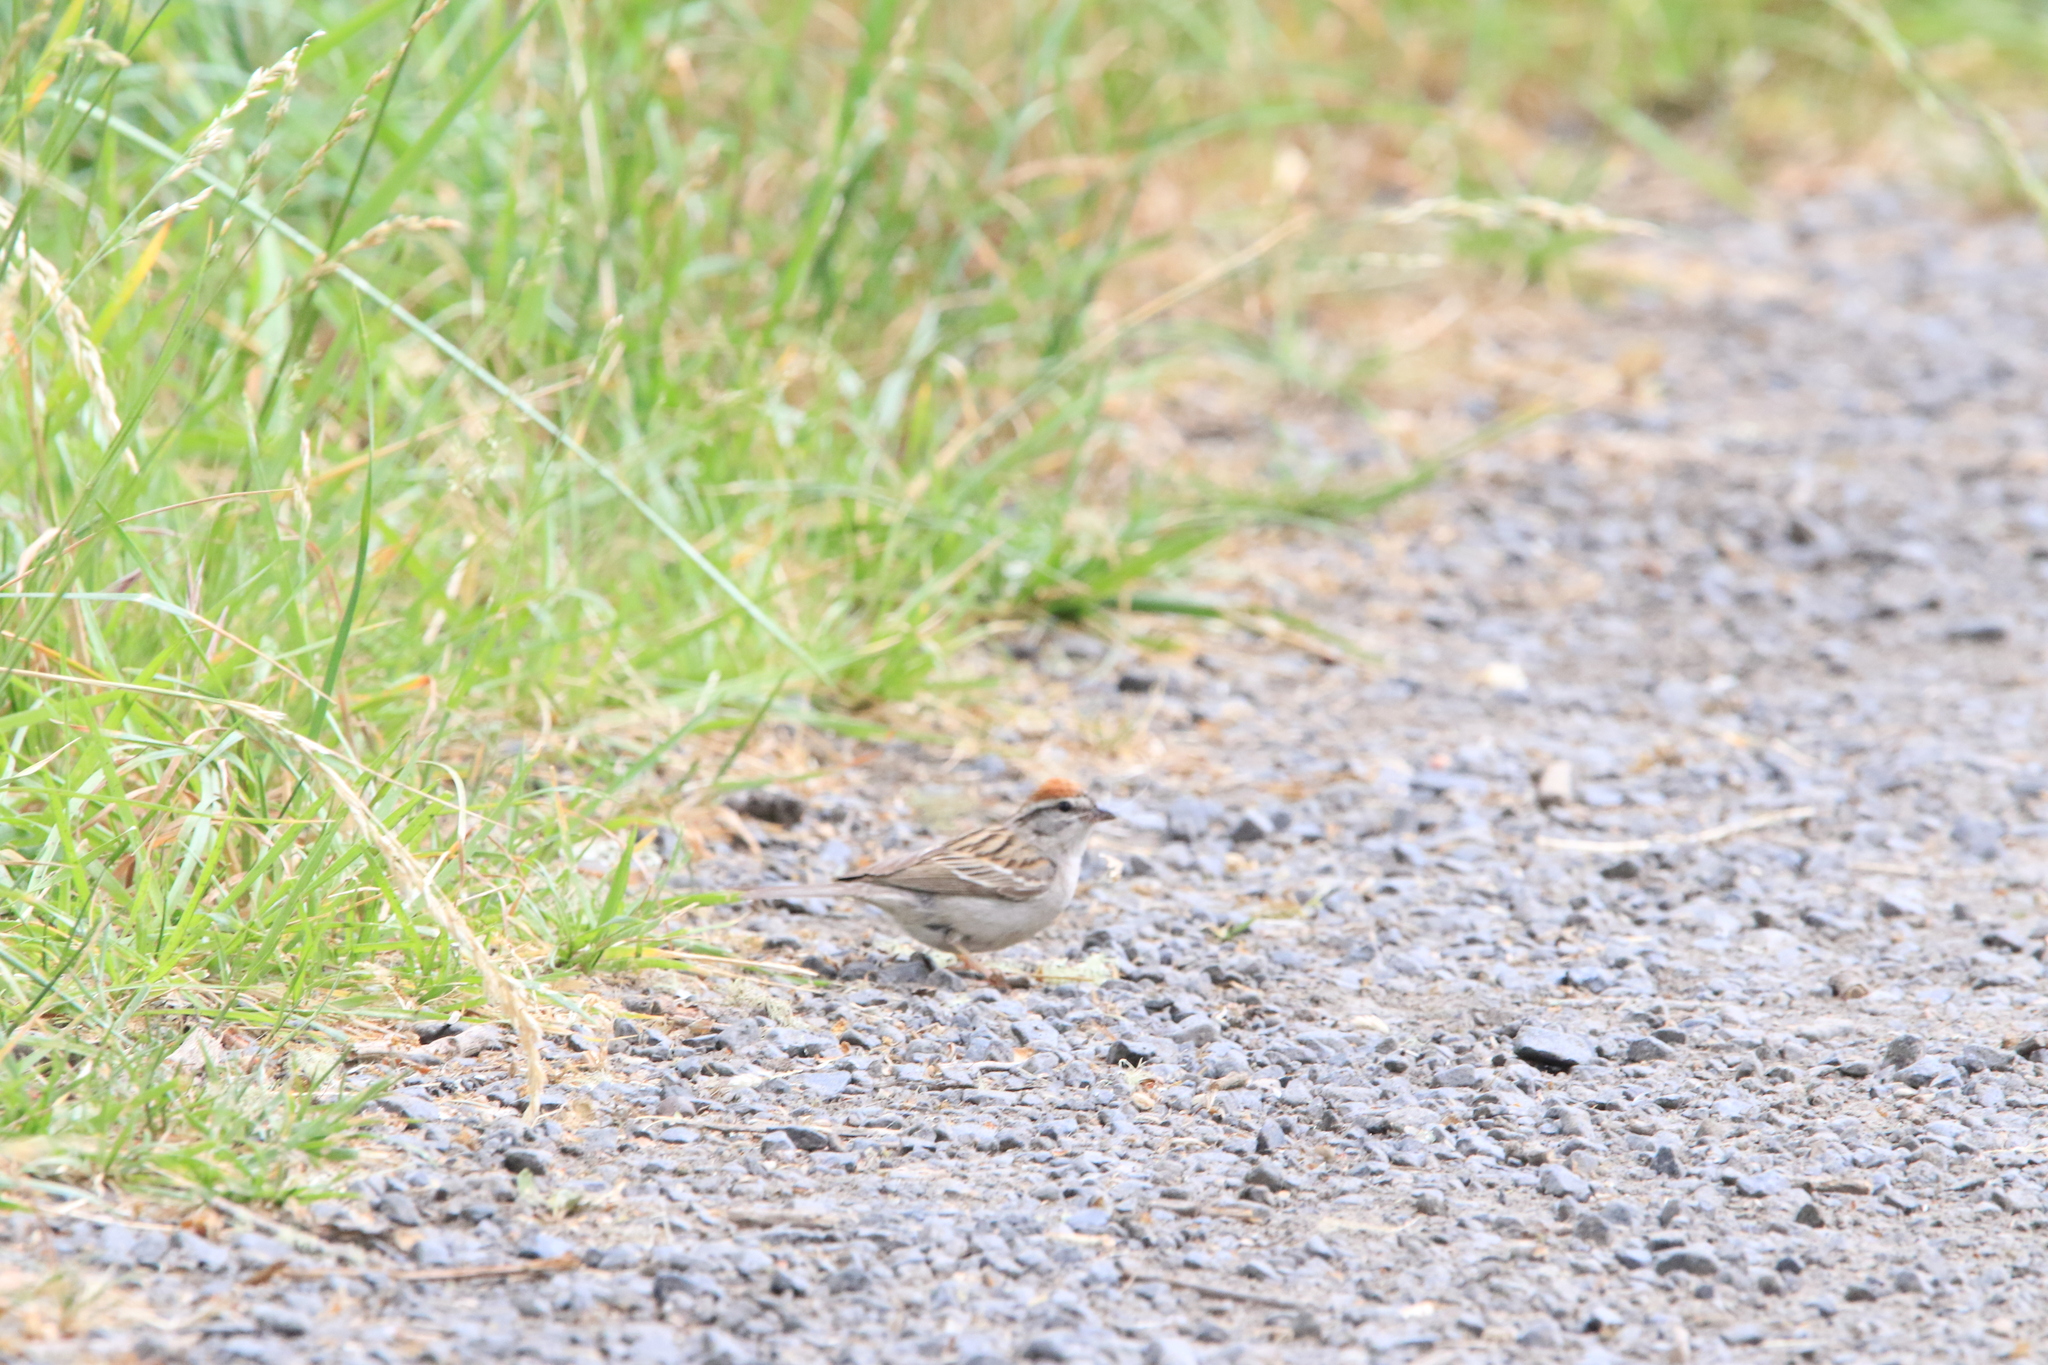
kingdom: Animalia
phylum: Chordata
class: Aves
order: Passeriformes
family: Passerellidae
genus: Spizella
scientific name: Spizella passerina
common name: Chipping sparrow
